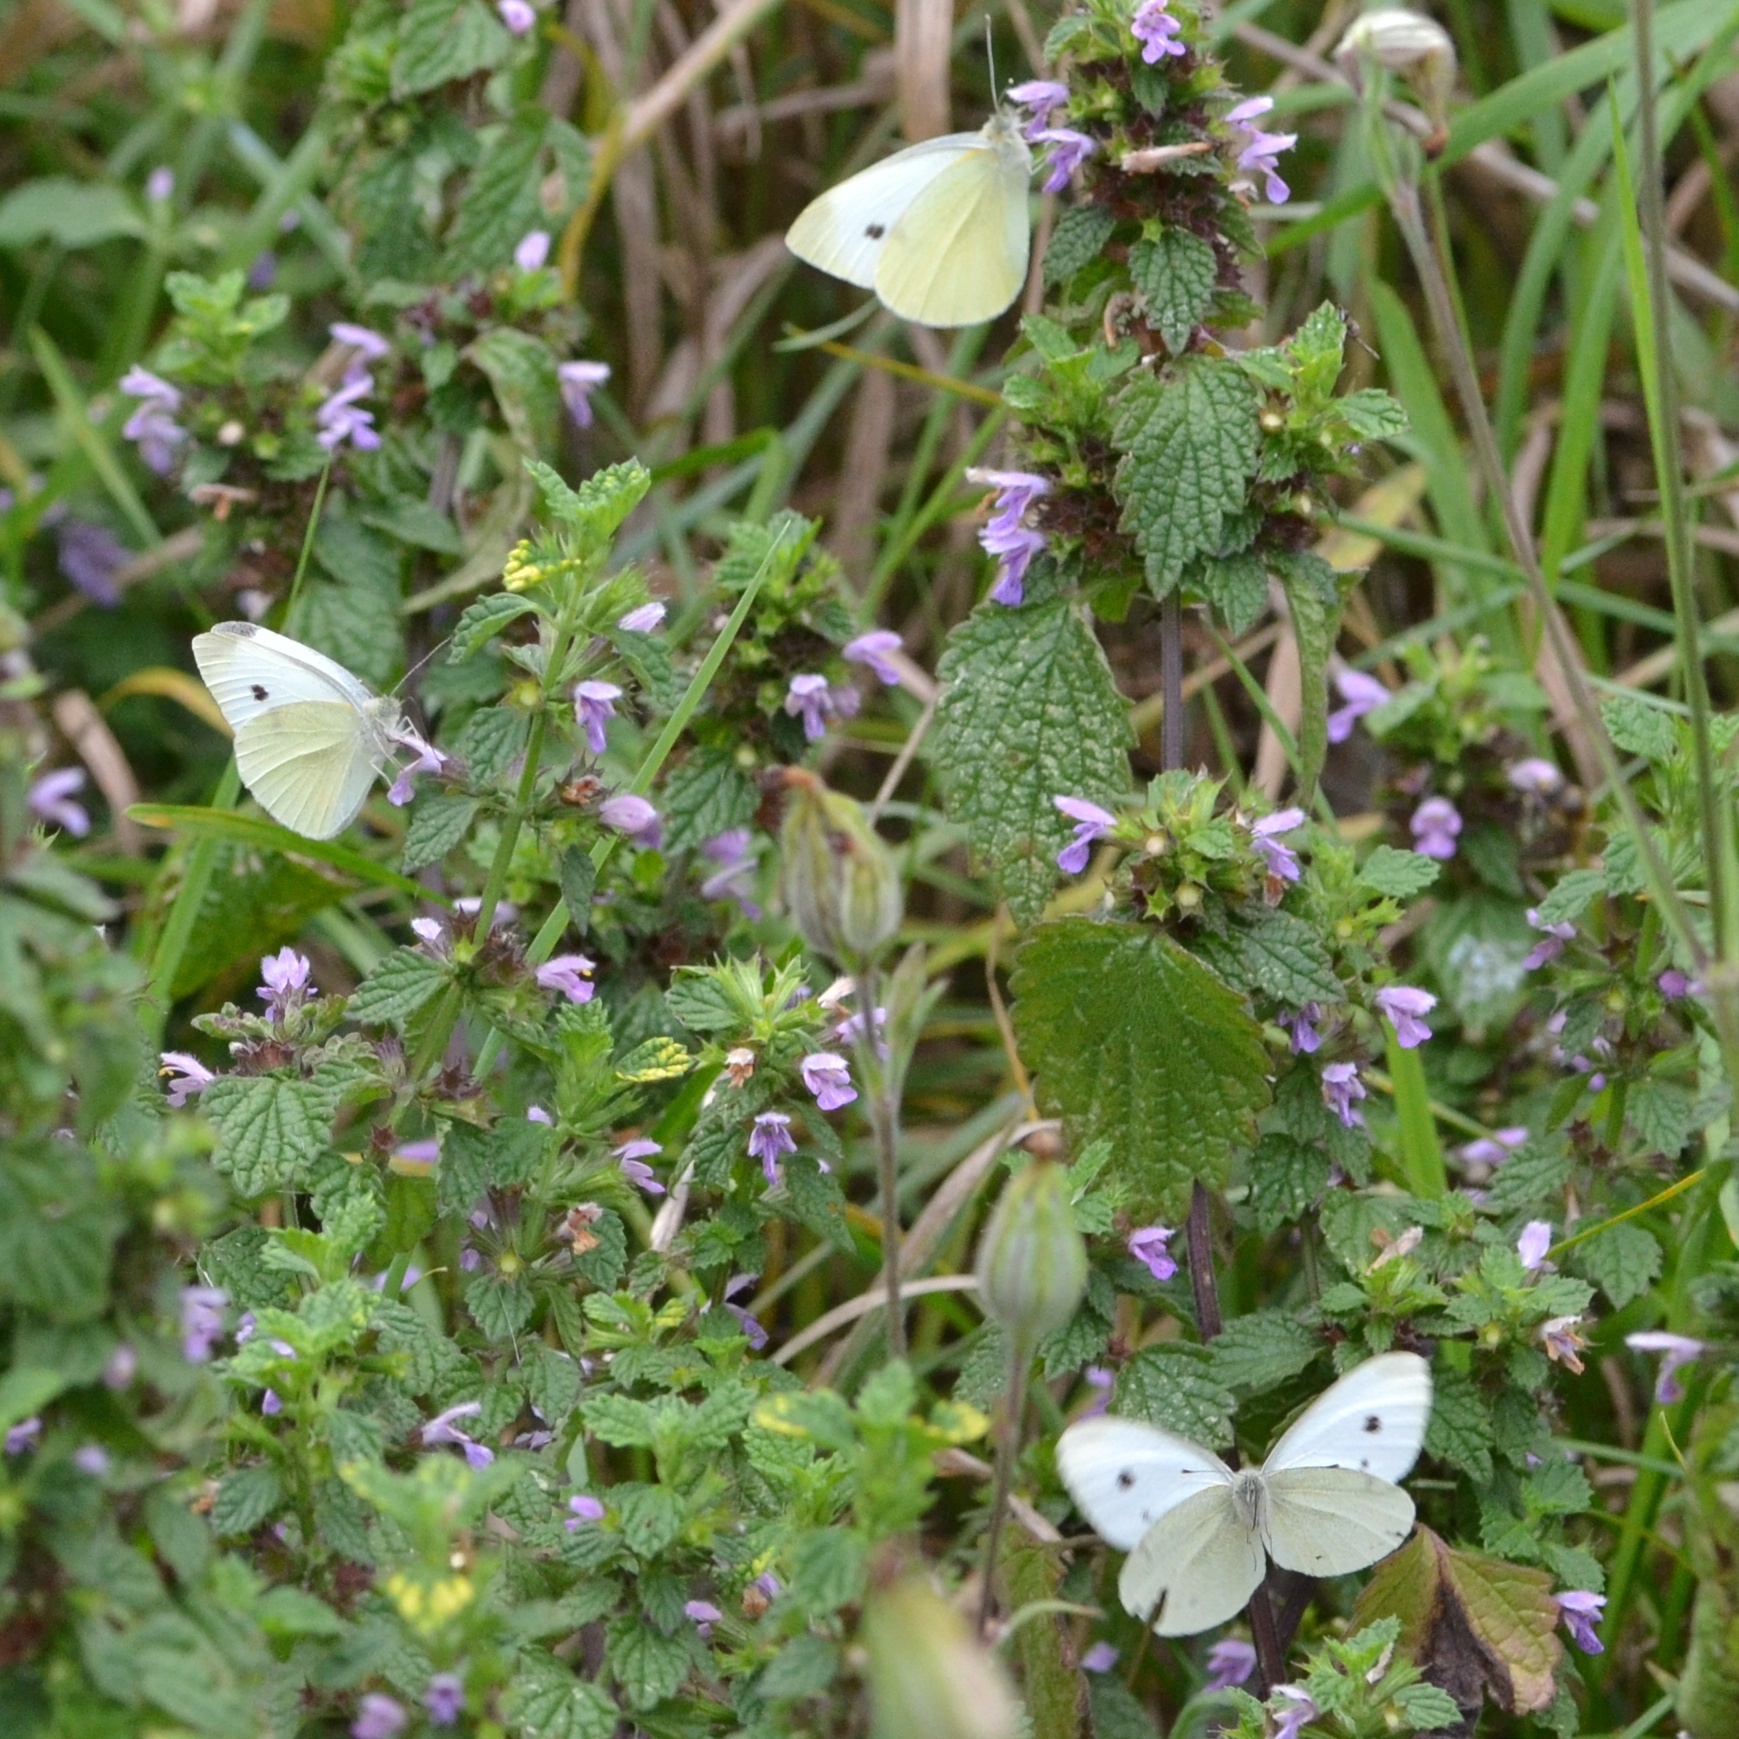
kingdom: Animalia
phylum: Arthropoda
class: Insecta
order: Lepidoptera
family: Pieridae
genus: Pieris
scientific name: Pieris rapae
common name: Small white
